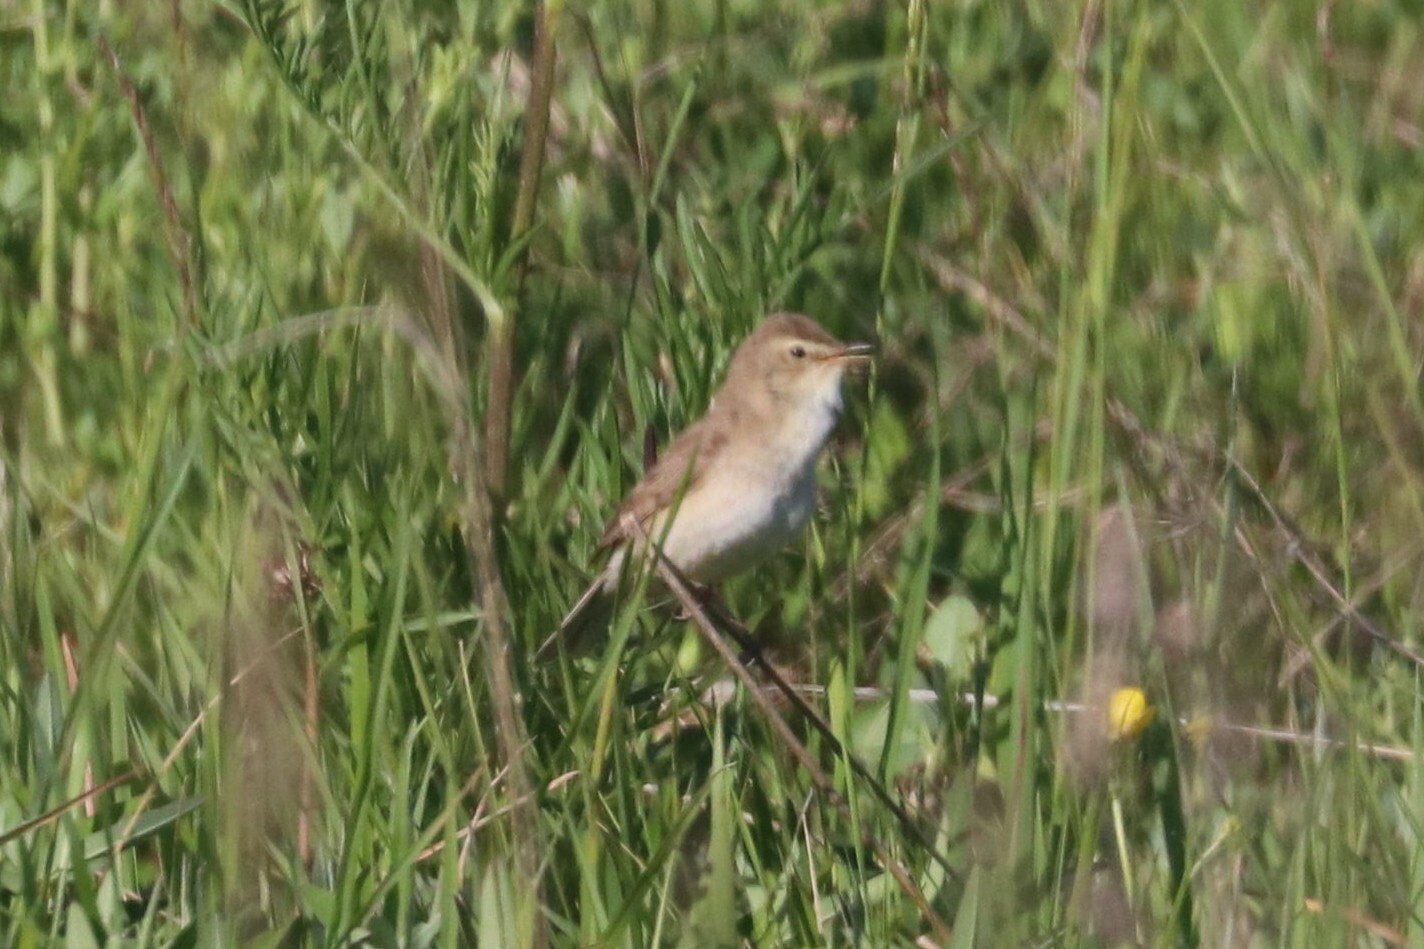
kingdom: Animalia
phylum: Chordata
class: Aves
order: Passeriformes
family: Acrocephalidae
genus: Iduna
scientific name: Iduna caligata
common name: Booted warbler
